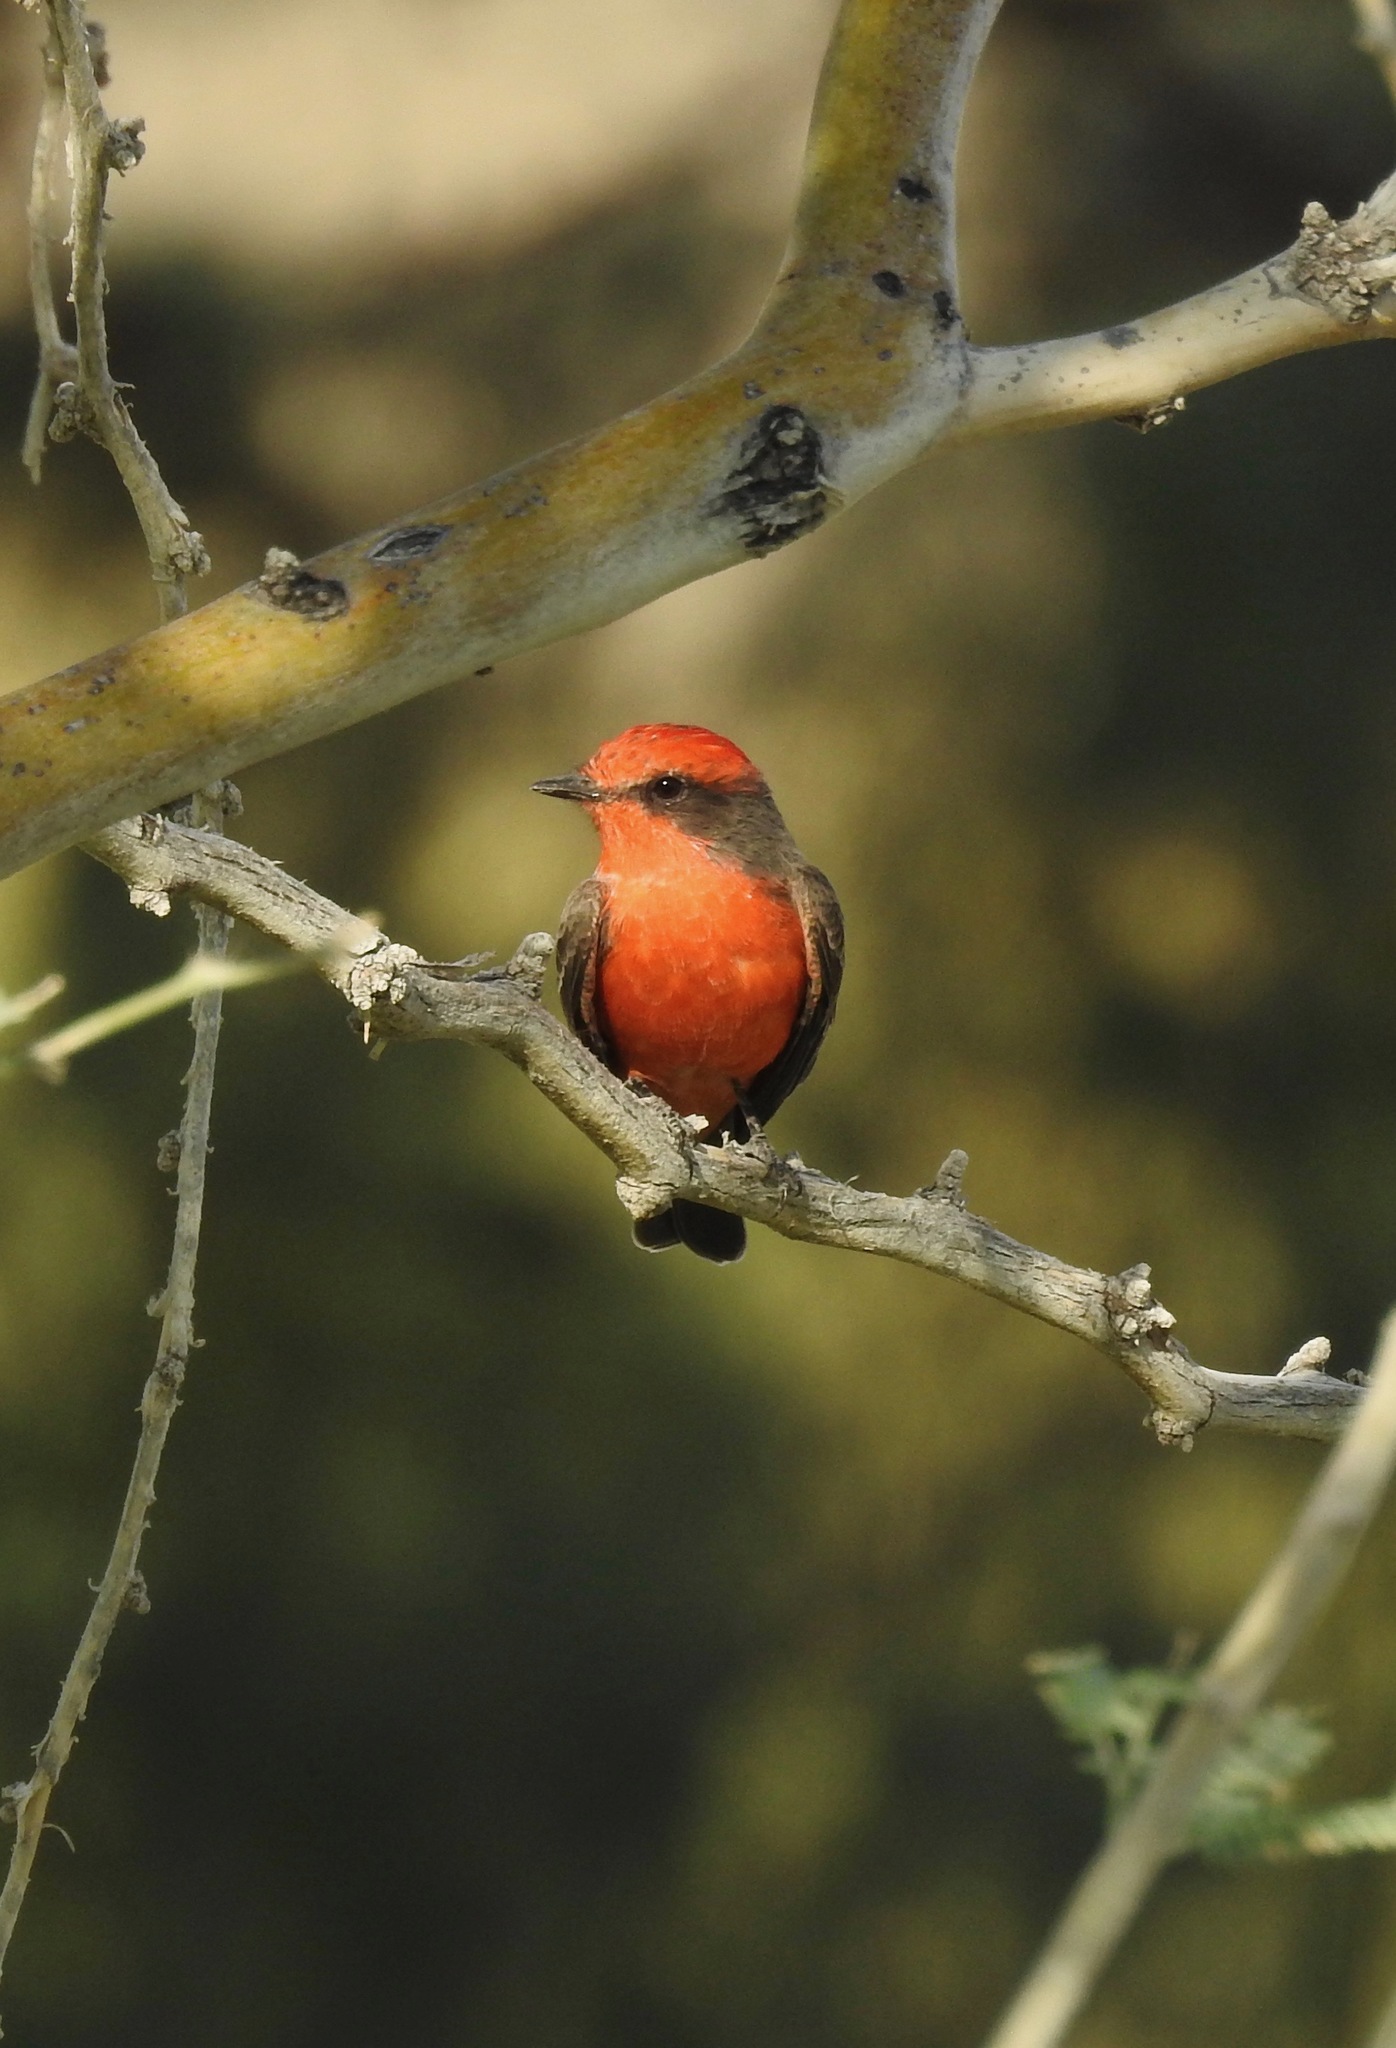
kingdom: Animalia
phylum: Chordata
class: Aves
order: Passeriformes
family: Tyrannidae
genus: Pyrocephalus
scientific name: Pyrocephalus rubinus
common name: Vermilion flycatcher
